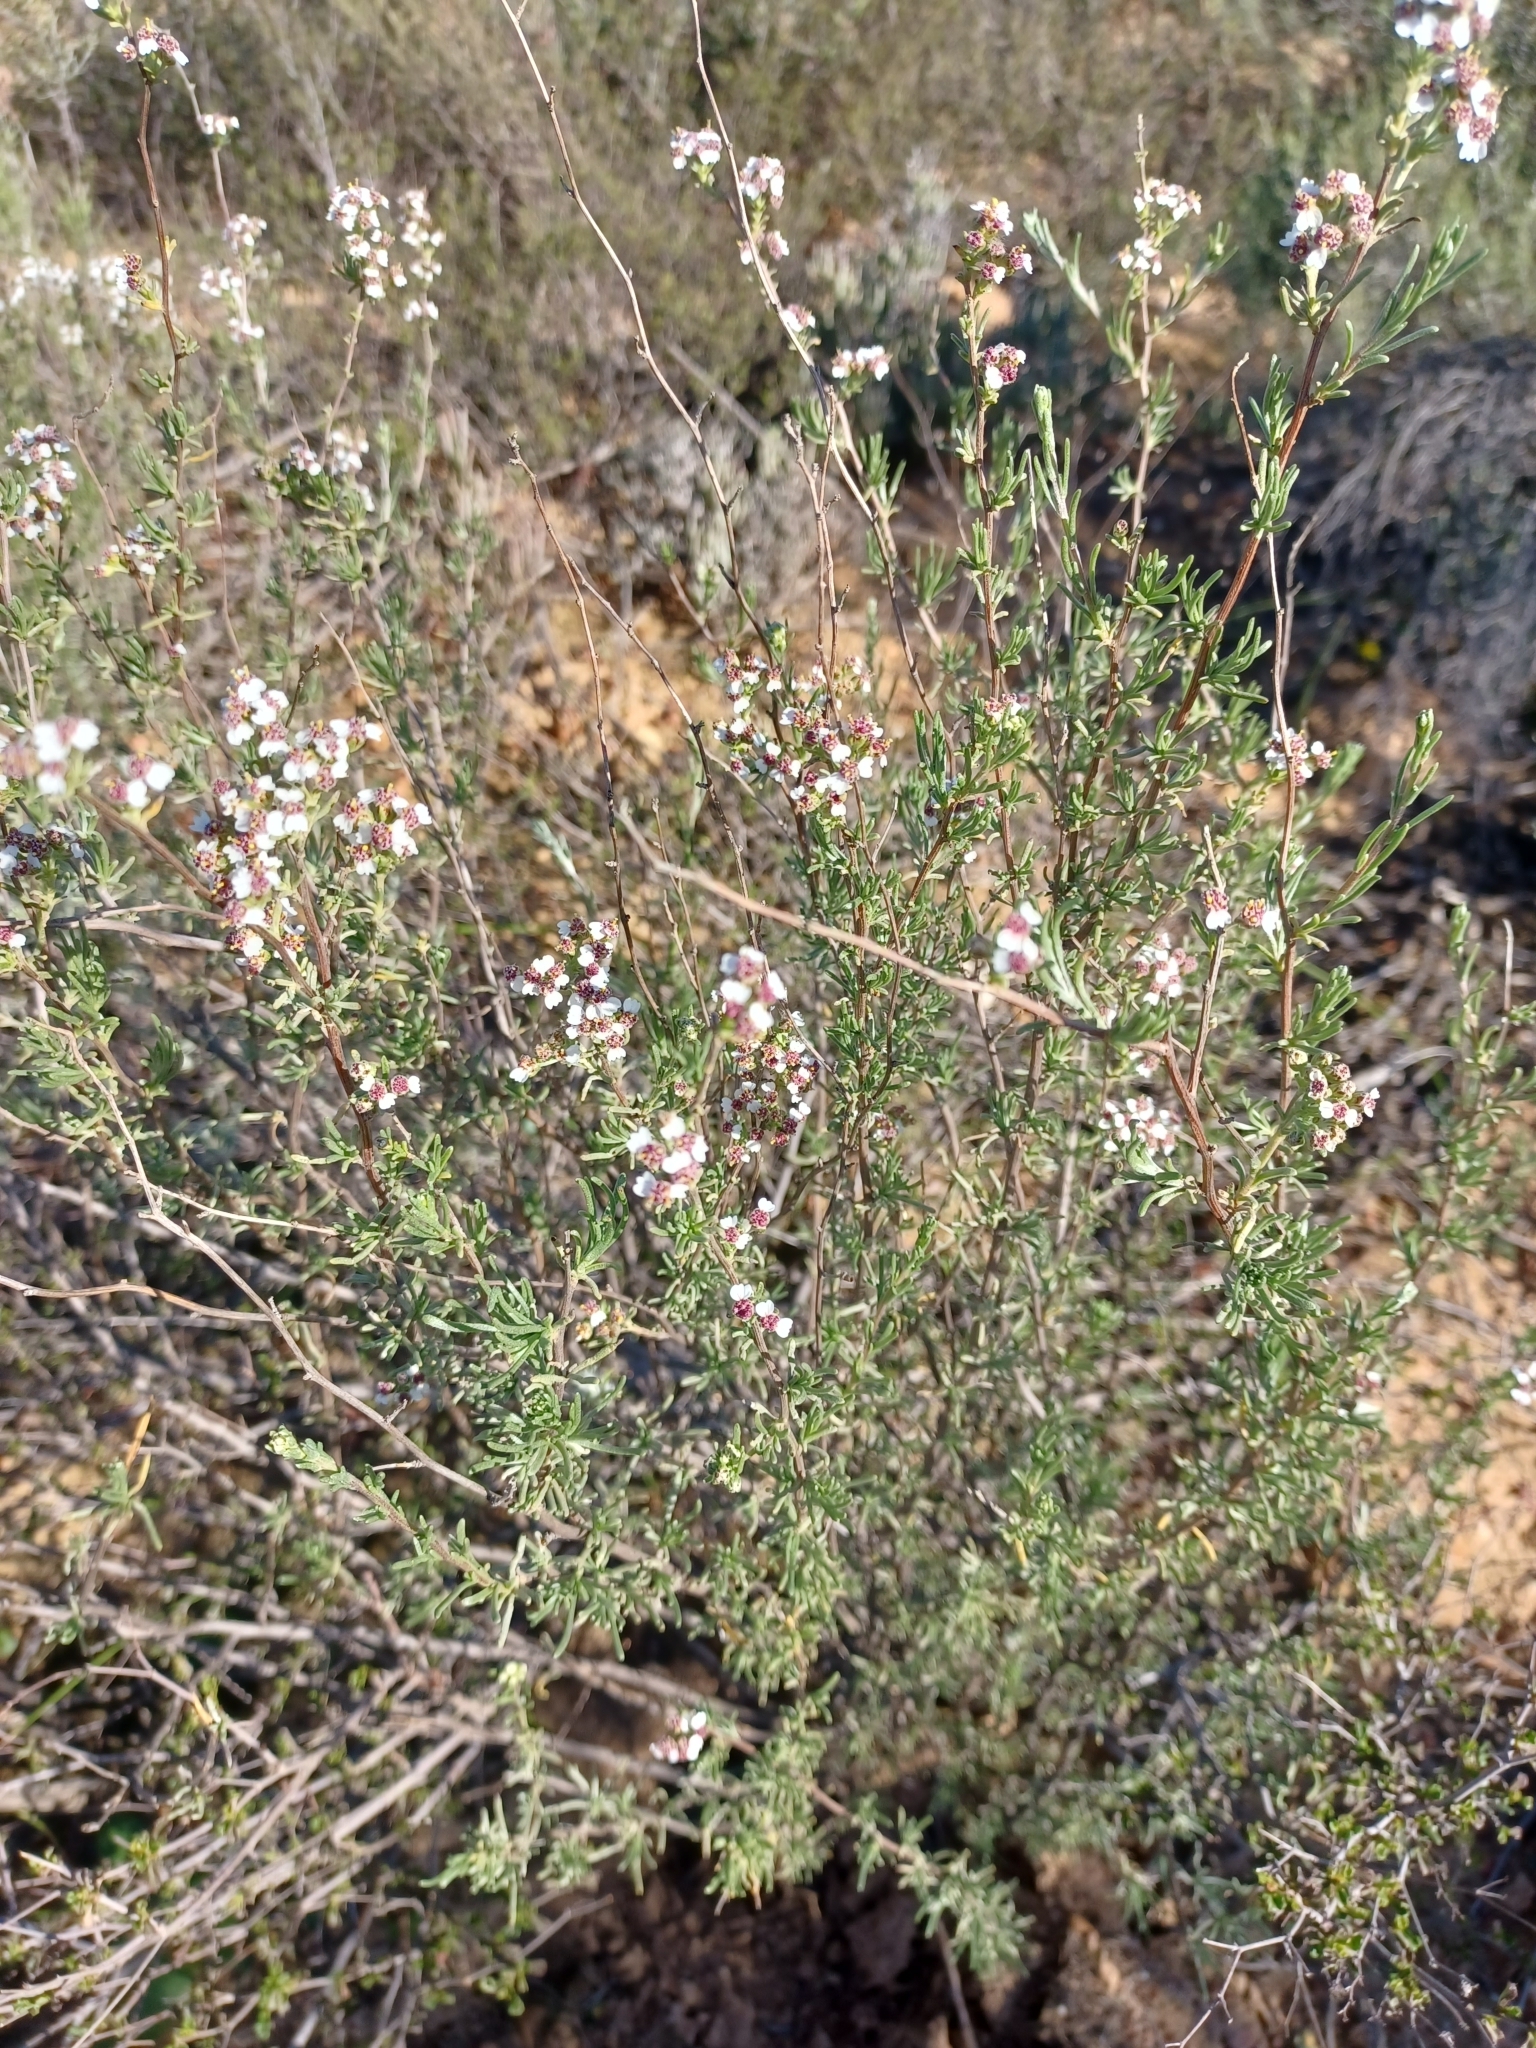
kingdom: Plantae
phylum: Tracheophyta
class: Magnoliopsida
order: Asterales
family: Asteraceae
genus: Eriocephalus
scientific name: Eriocephalus africanus
